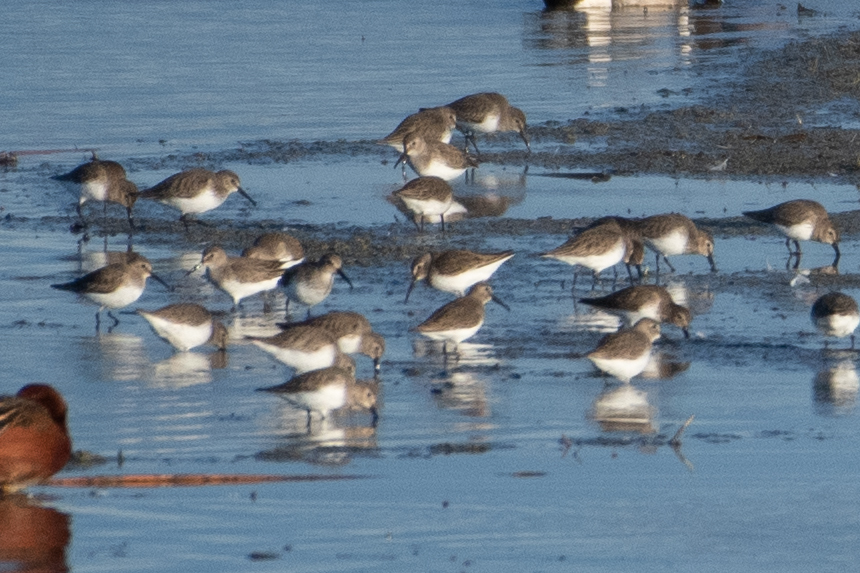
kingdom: Animalia
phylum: Chordata
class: Aves
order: Charadriiformes
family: Scolopacidae
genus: Calidris
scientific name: Calidris alpina
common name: Dunlin
